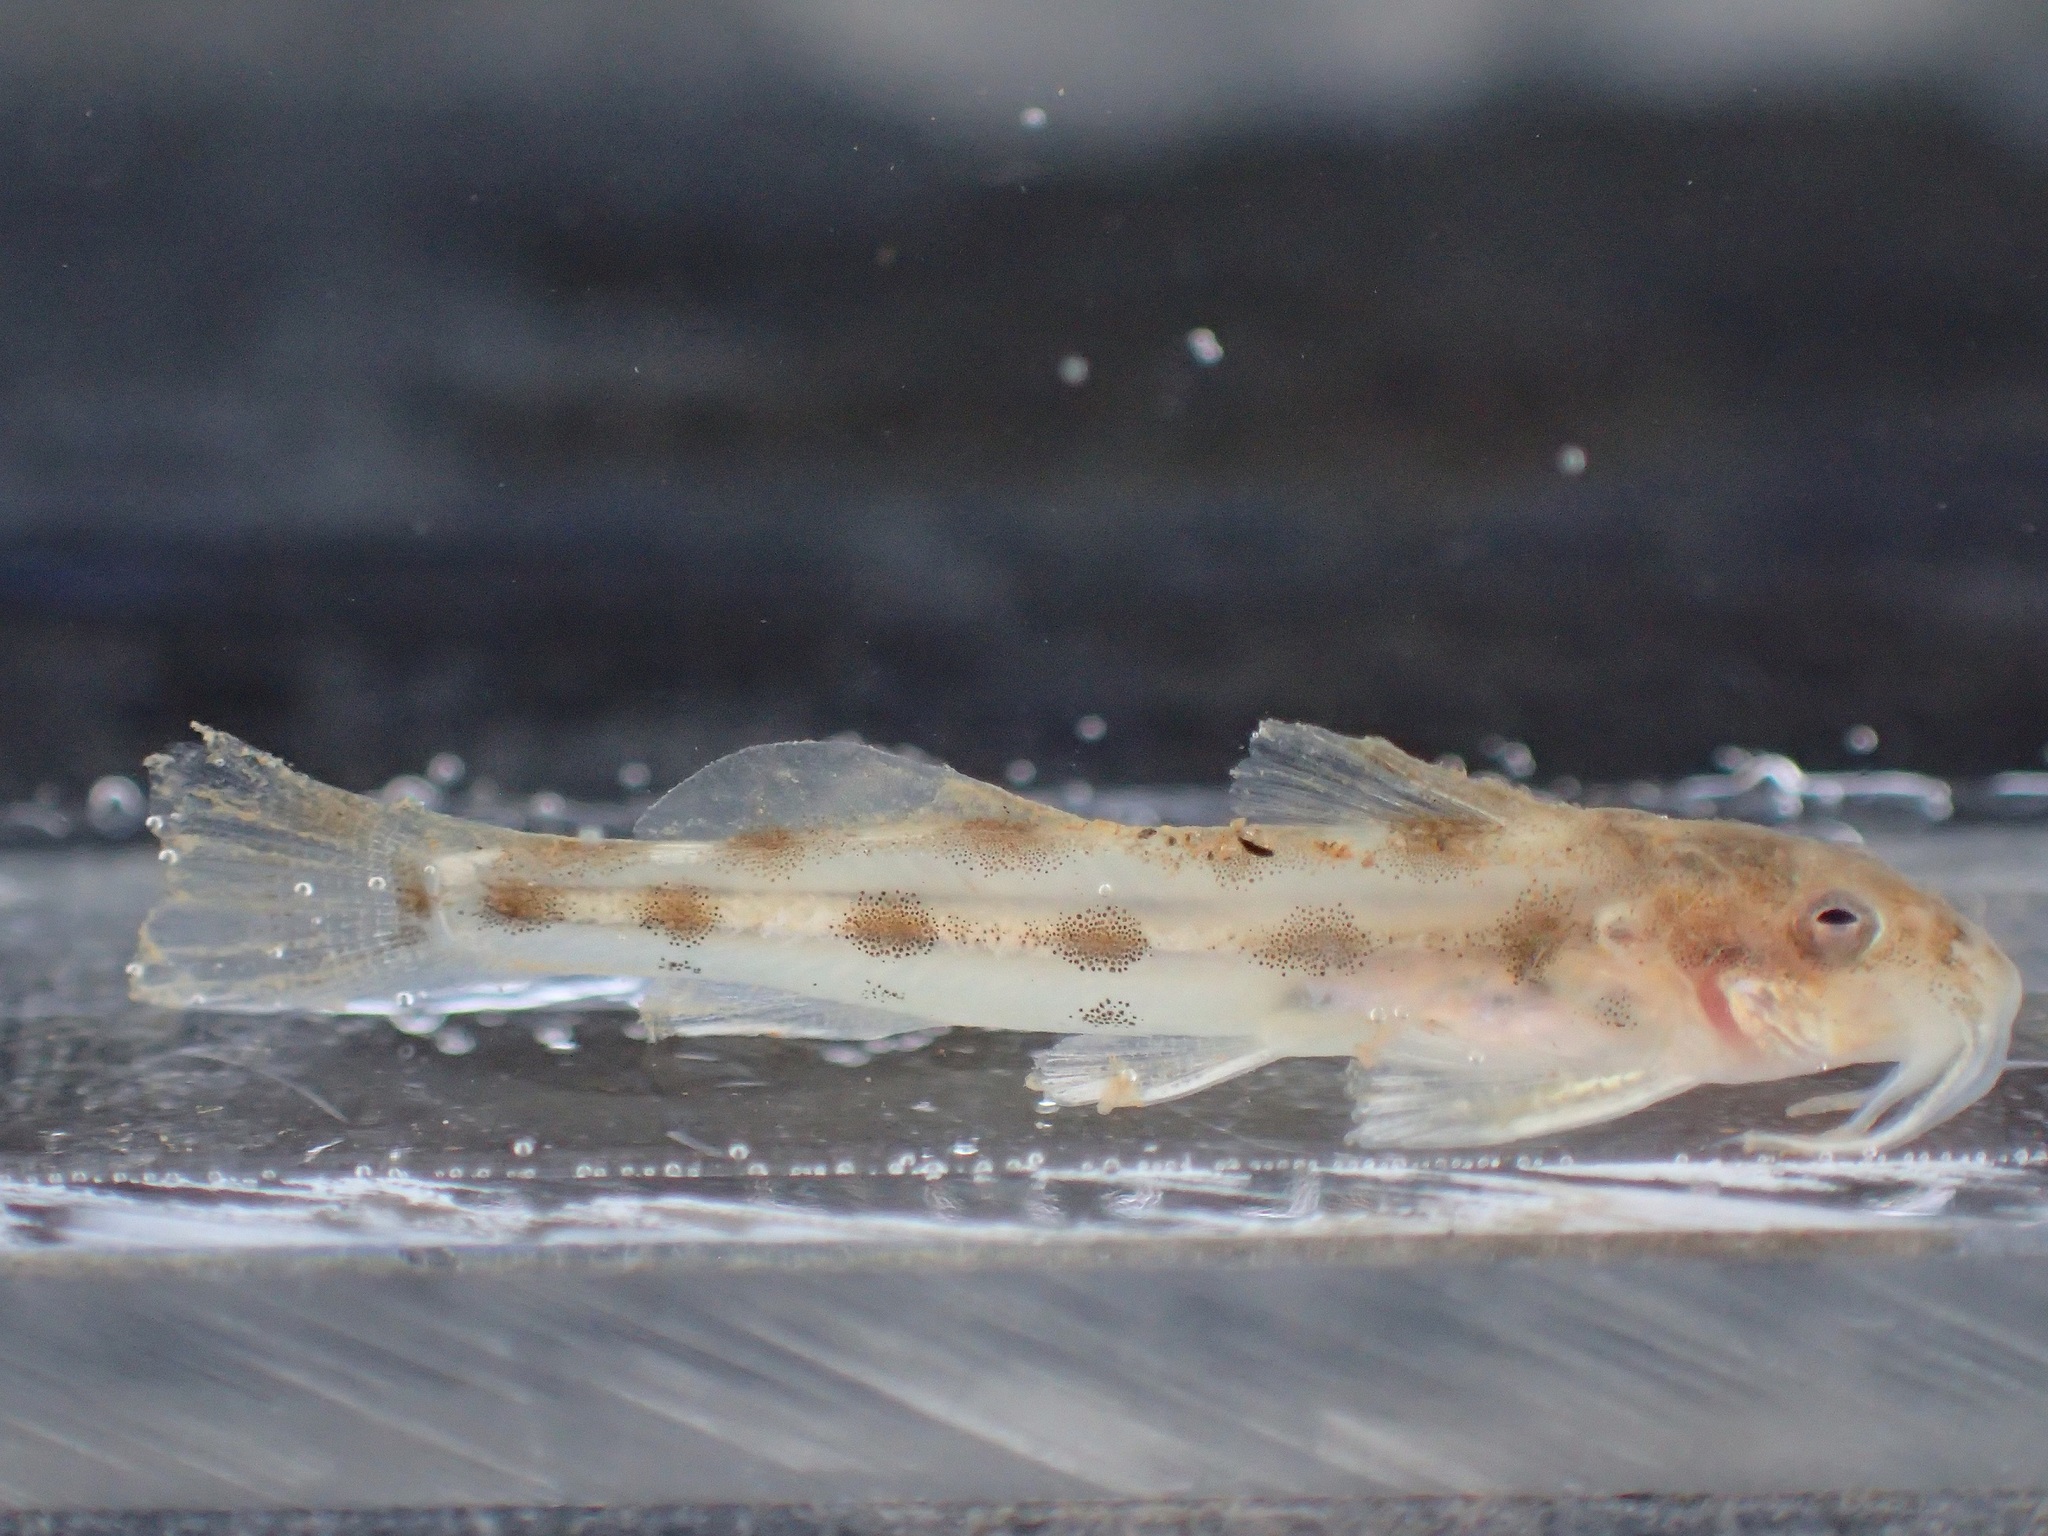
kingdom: Animalia
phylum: Chordata
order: Siluriformes
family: Amphiliidae
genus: Zaireichthys
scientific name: Zaireichthys monomotapa
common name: Eastern sand catlet
